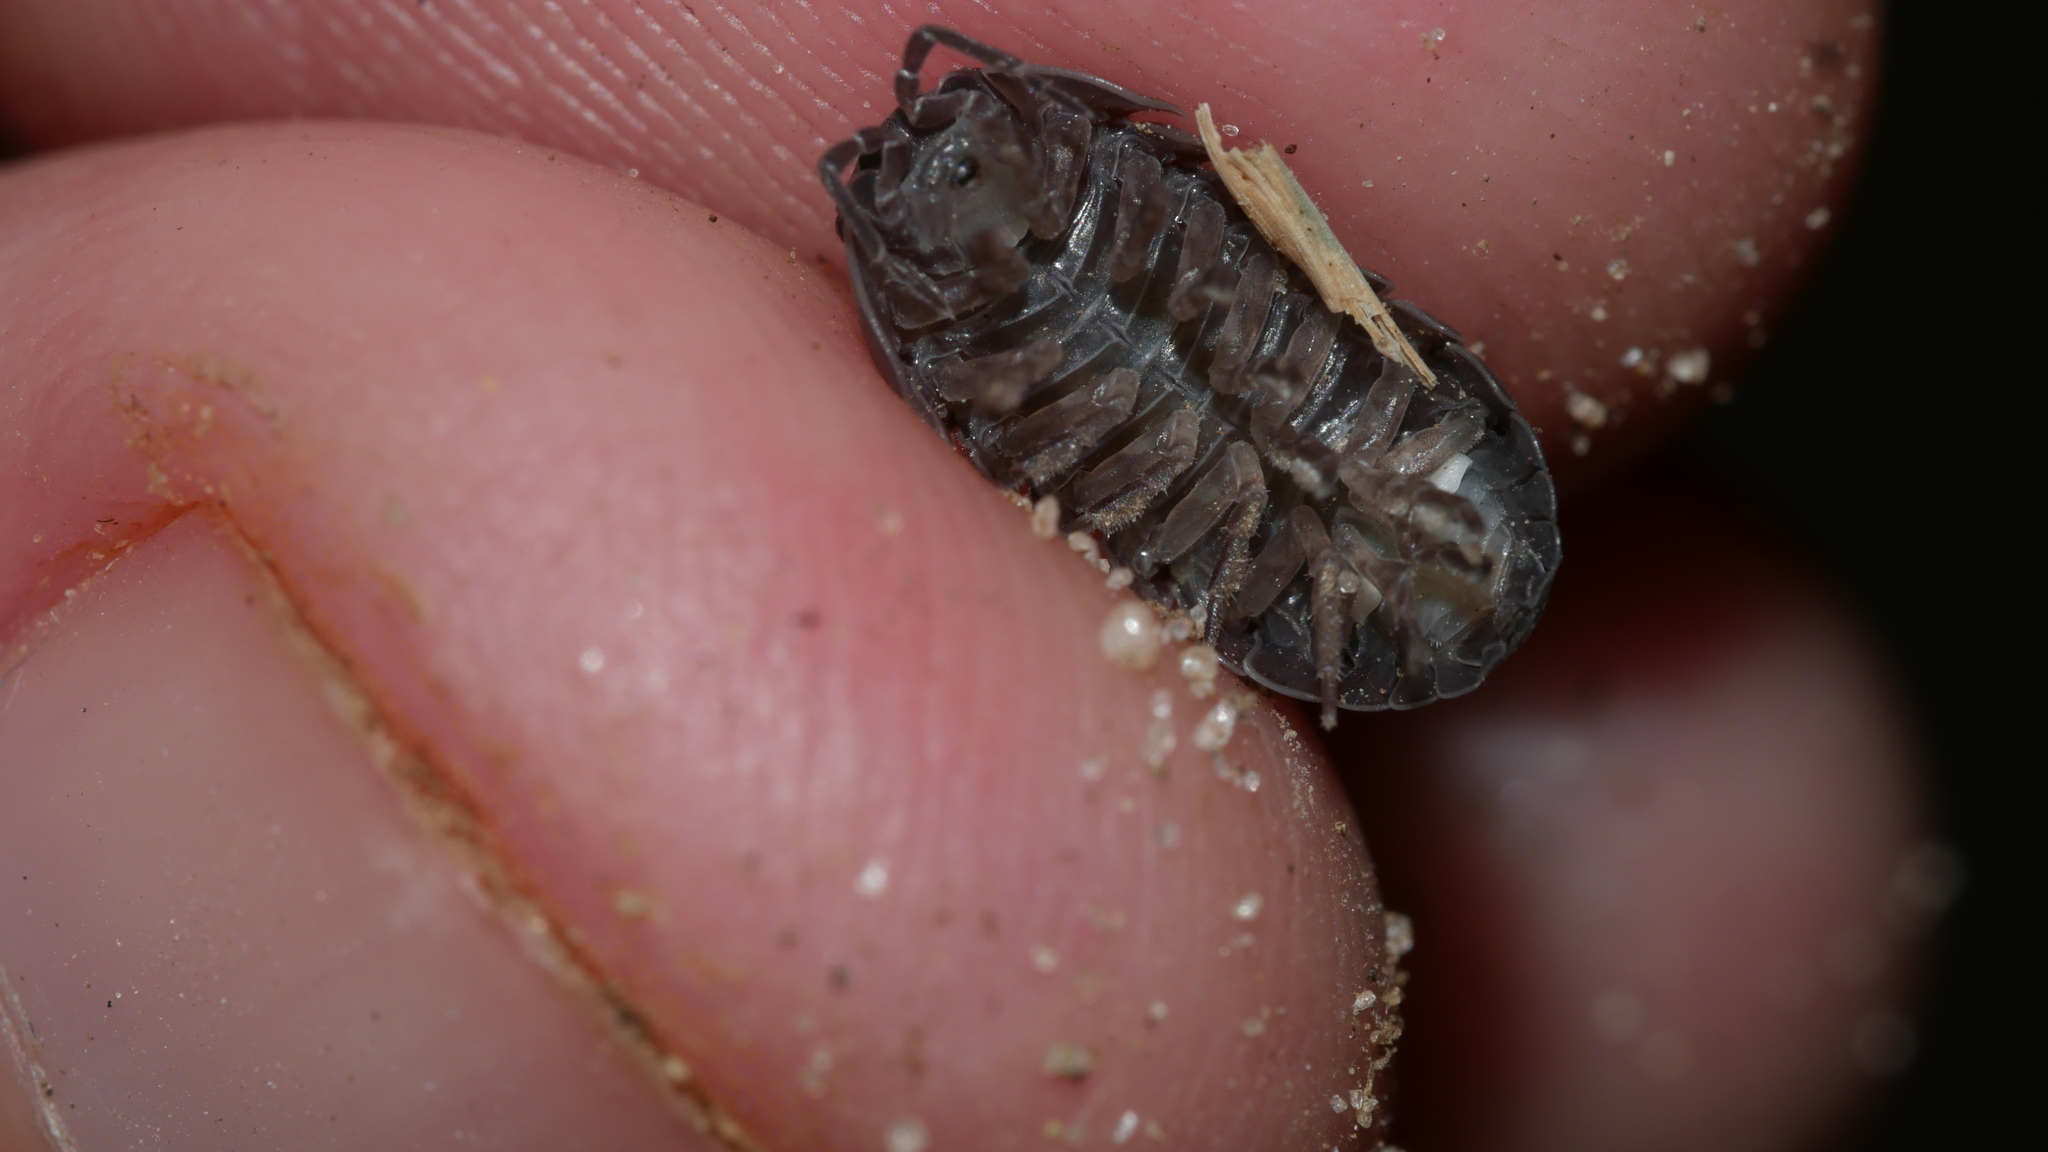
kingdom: Animalia
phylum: Arthropoda
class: Malacostraca
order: Isopoda
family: Armadillidiidae
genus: Armadillidium
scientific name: Armadillidium vulgare
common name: Common pill woodlouse
